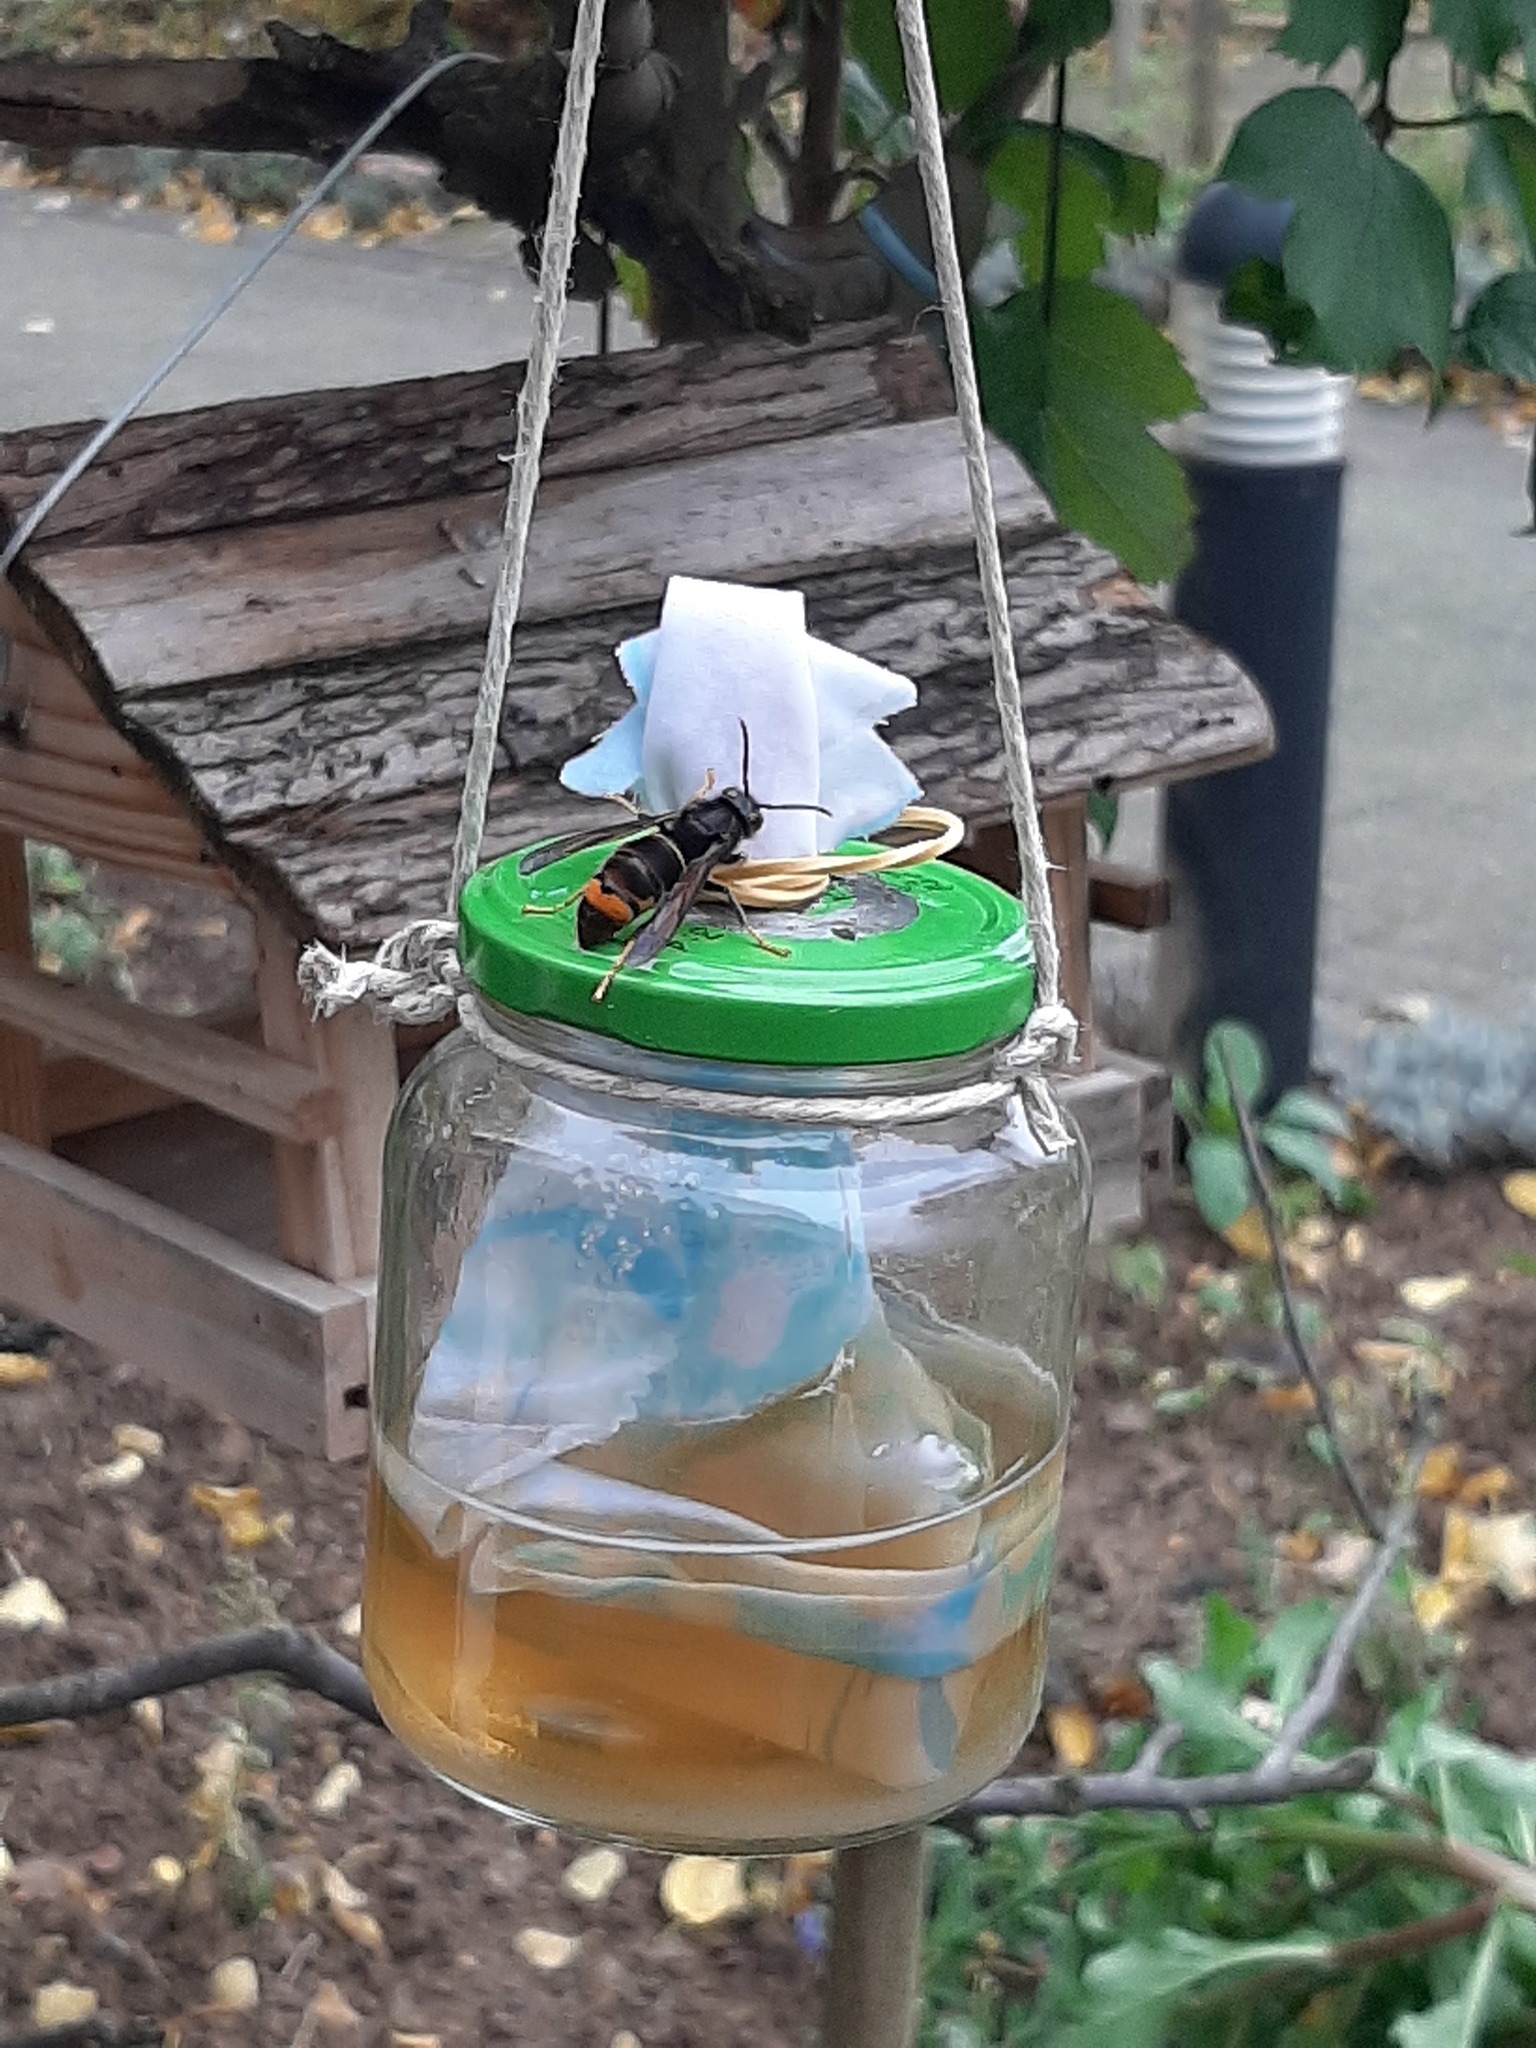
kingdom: Animalia
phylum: Arthropoda
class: Insecta
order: Hymenoptera
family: Vespidae
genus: Vespa
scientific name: Vespa velutina
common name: Asian hornet
